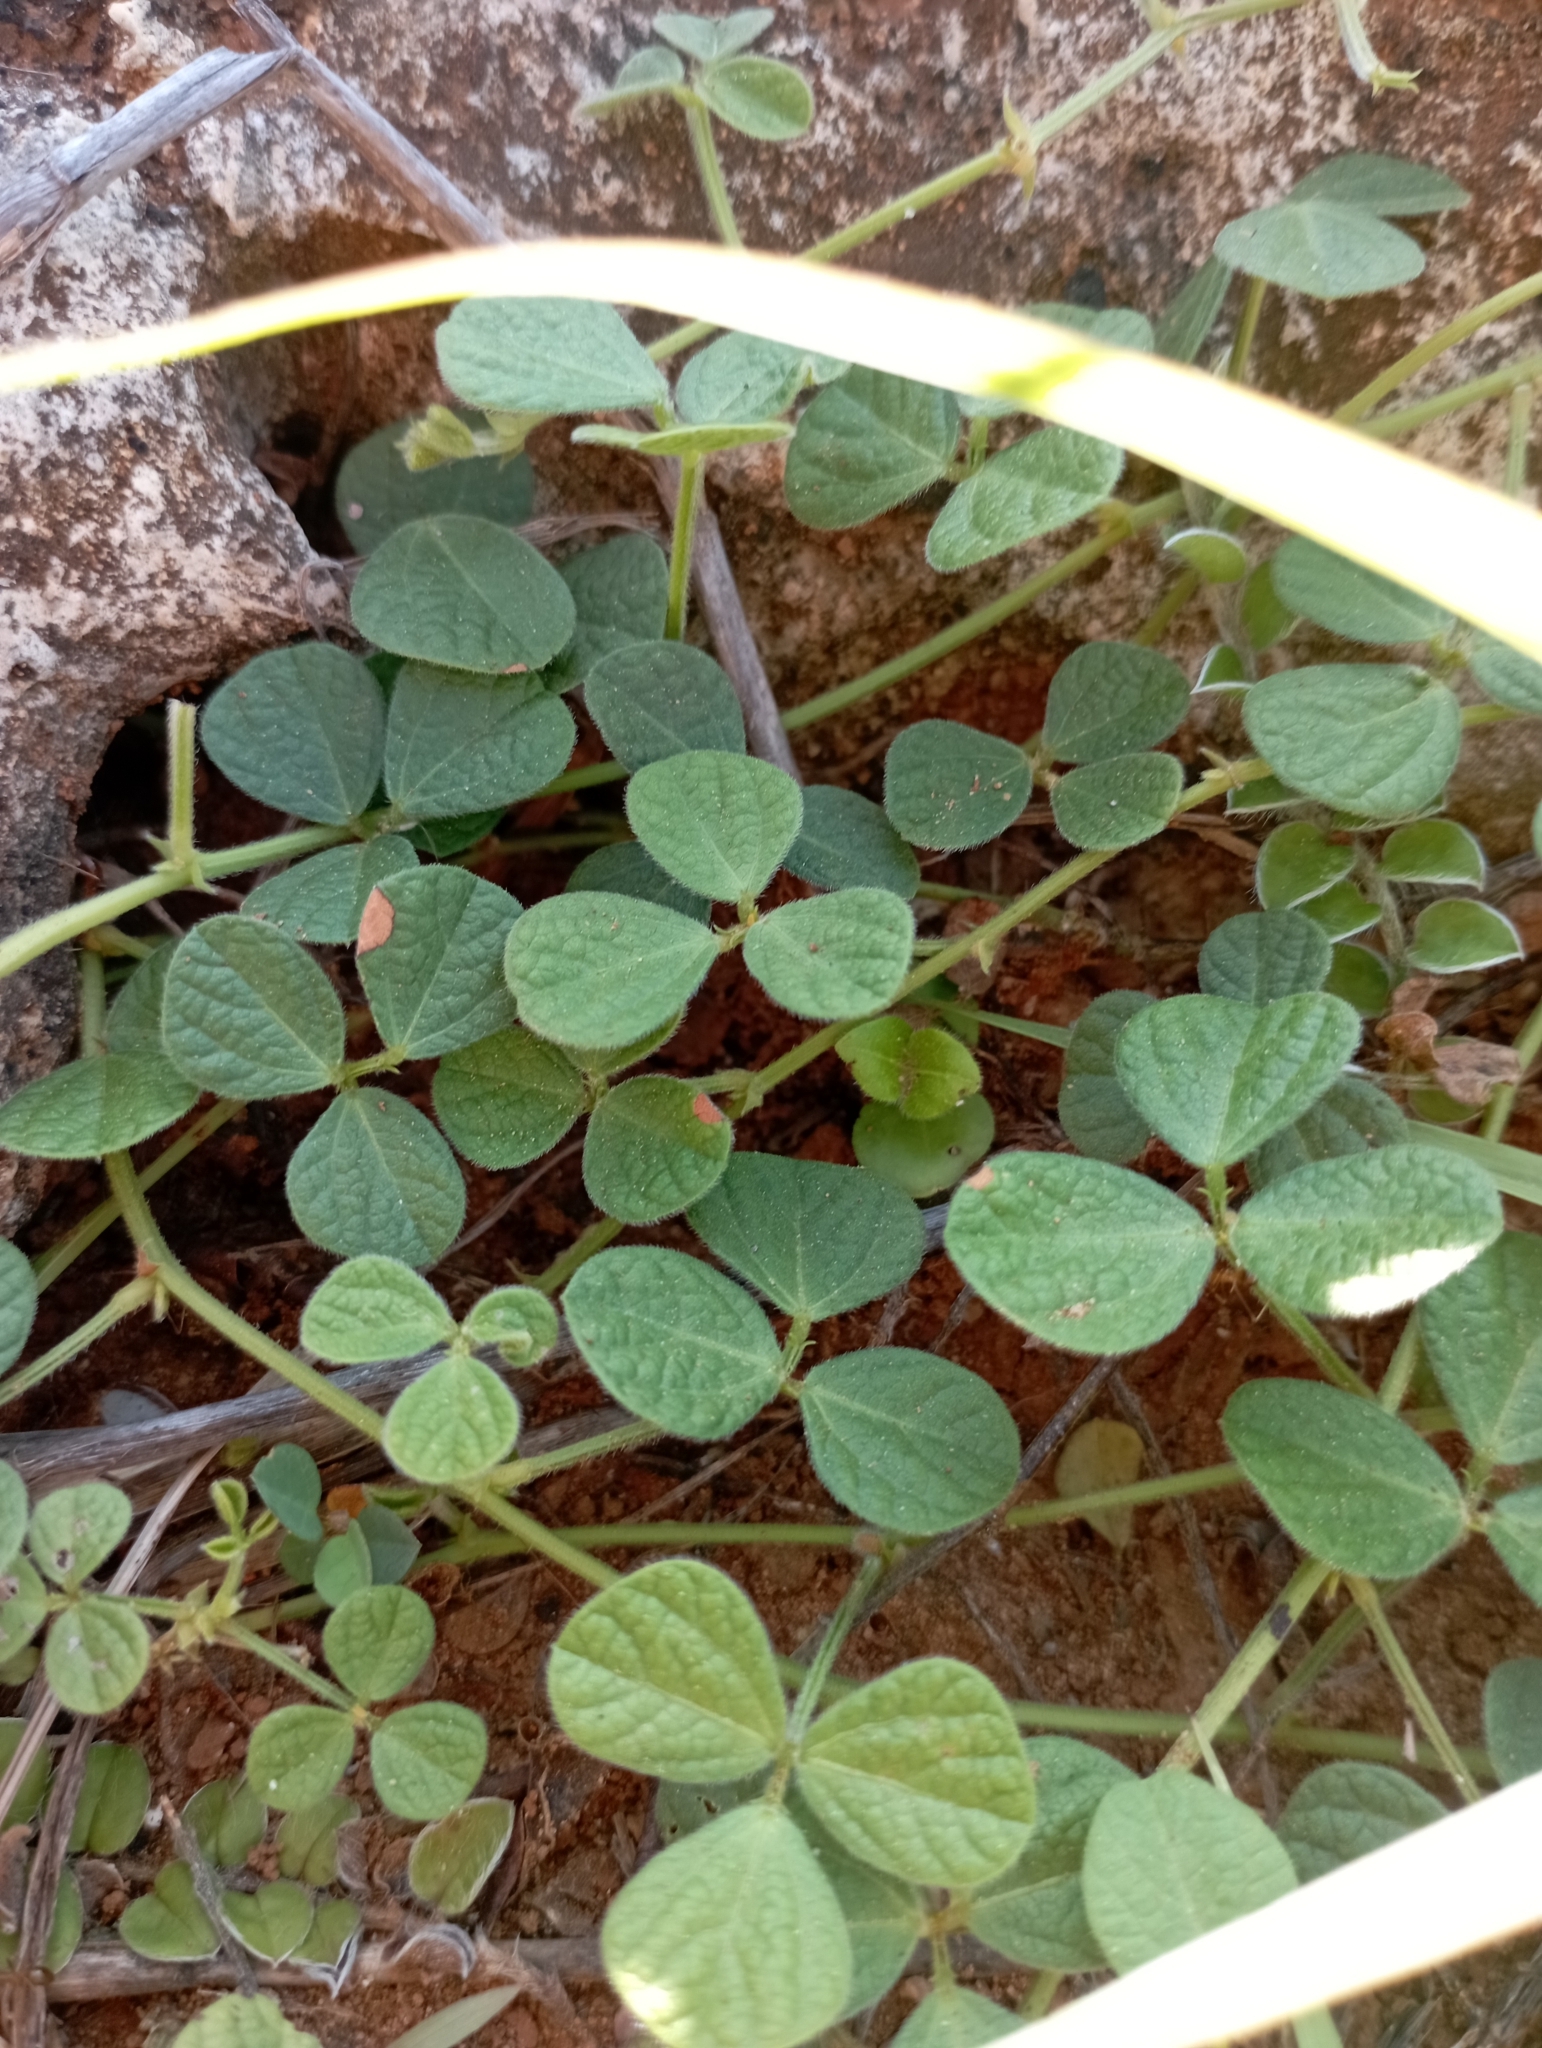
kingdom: Plantae
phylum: Tracheophyta
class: Magnoliopsida
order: Fabales
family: Fabaceae
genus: Rhynchosia
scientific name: Rhynchosia minima
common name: Least snoutbean
